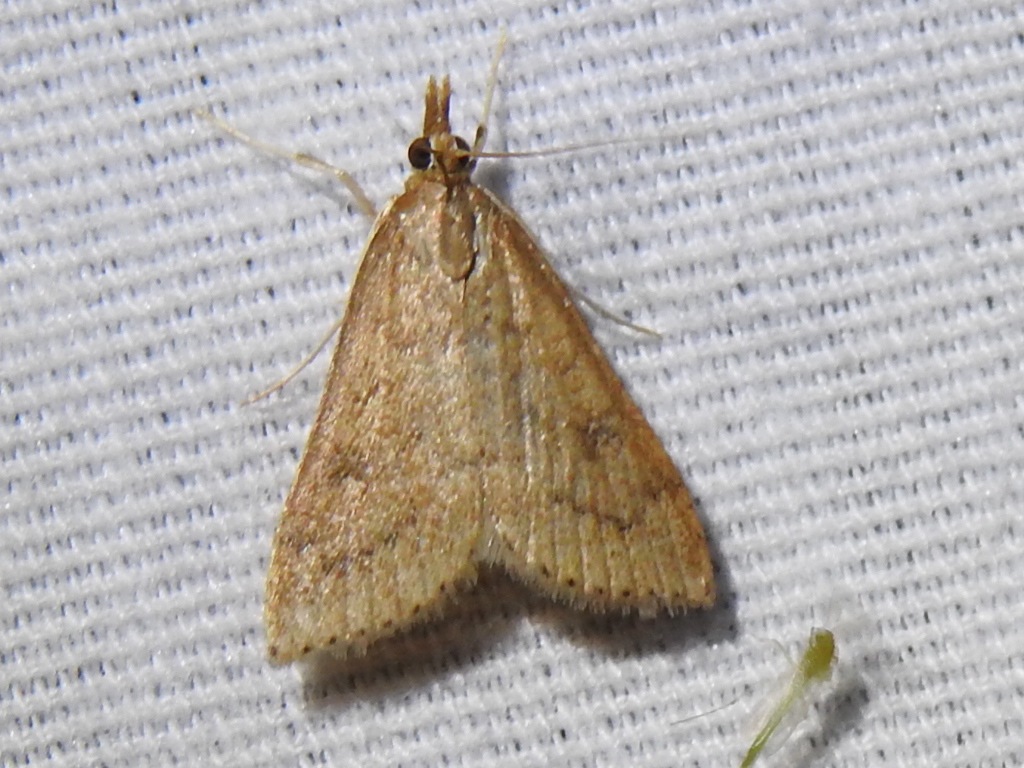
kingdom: Animalia
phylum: Arthropoda
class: Insecta
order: Lepidoptera
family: Crambidae
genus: Udea
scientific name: Udea rubigalis
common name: Celery leaftier moth
